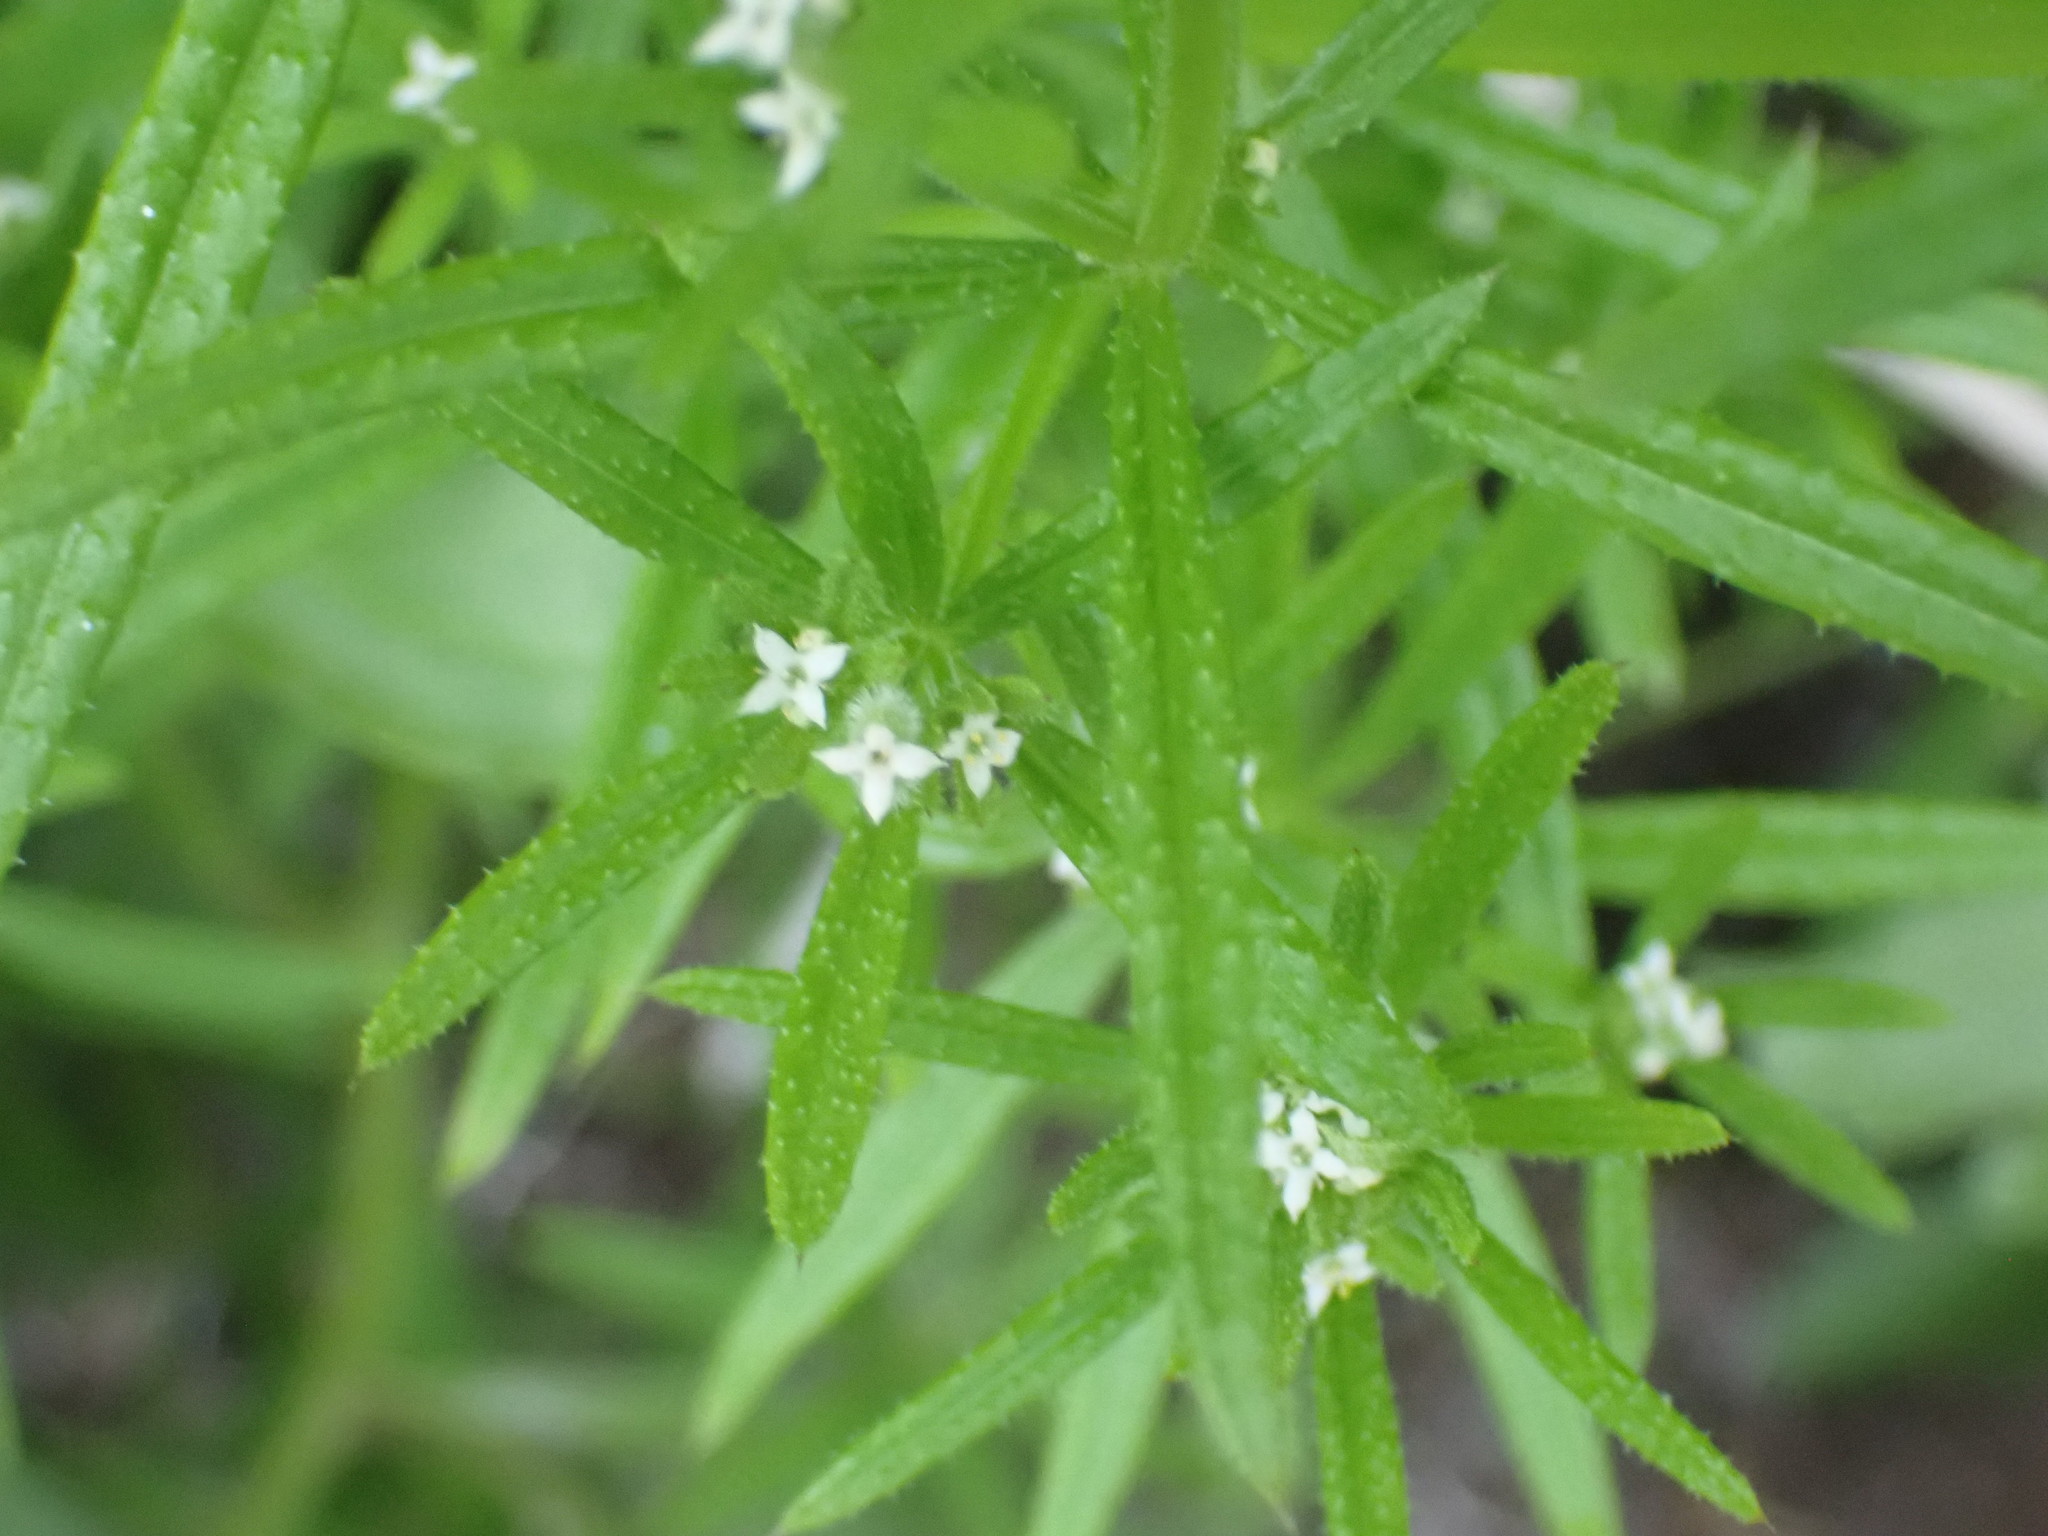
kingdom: Plantae
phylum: Tracheophyta
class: Magnoliopsida
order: Gentianales
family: Rubiaceae
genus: Galium
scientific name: Galium aparine
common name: Cleavers
